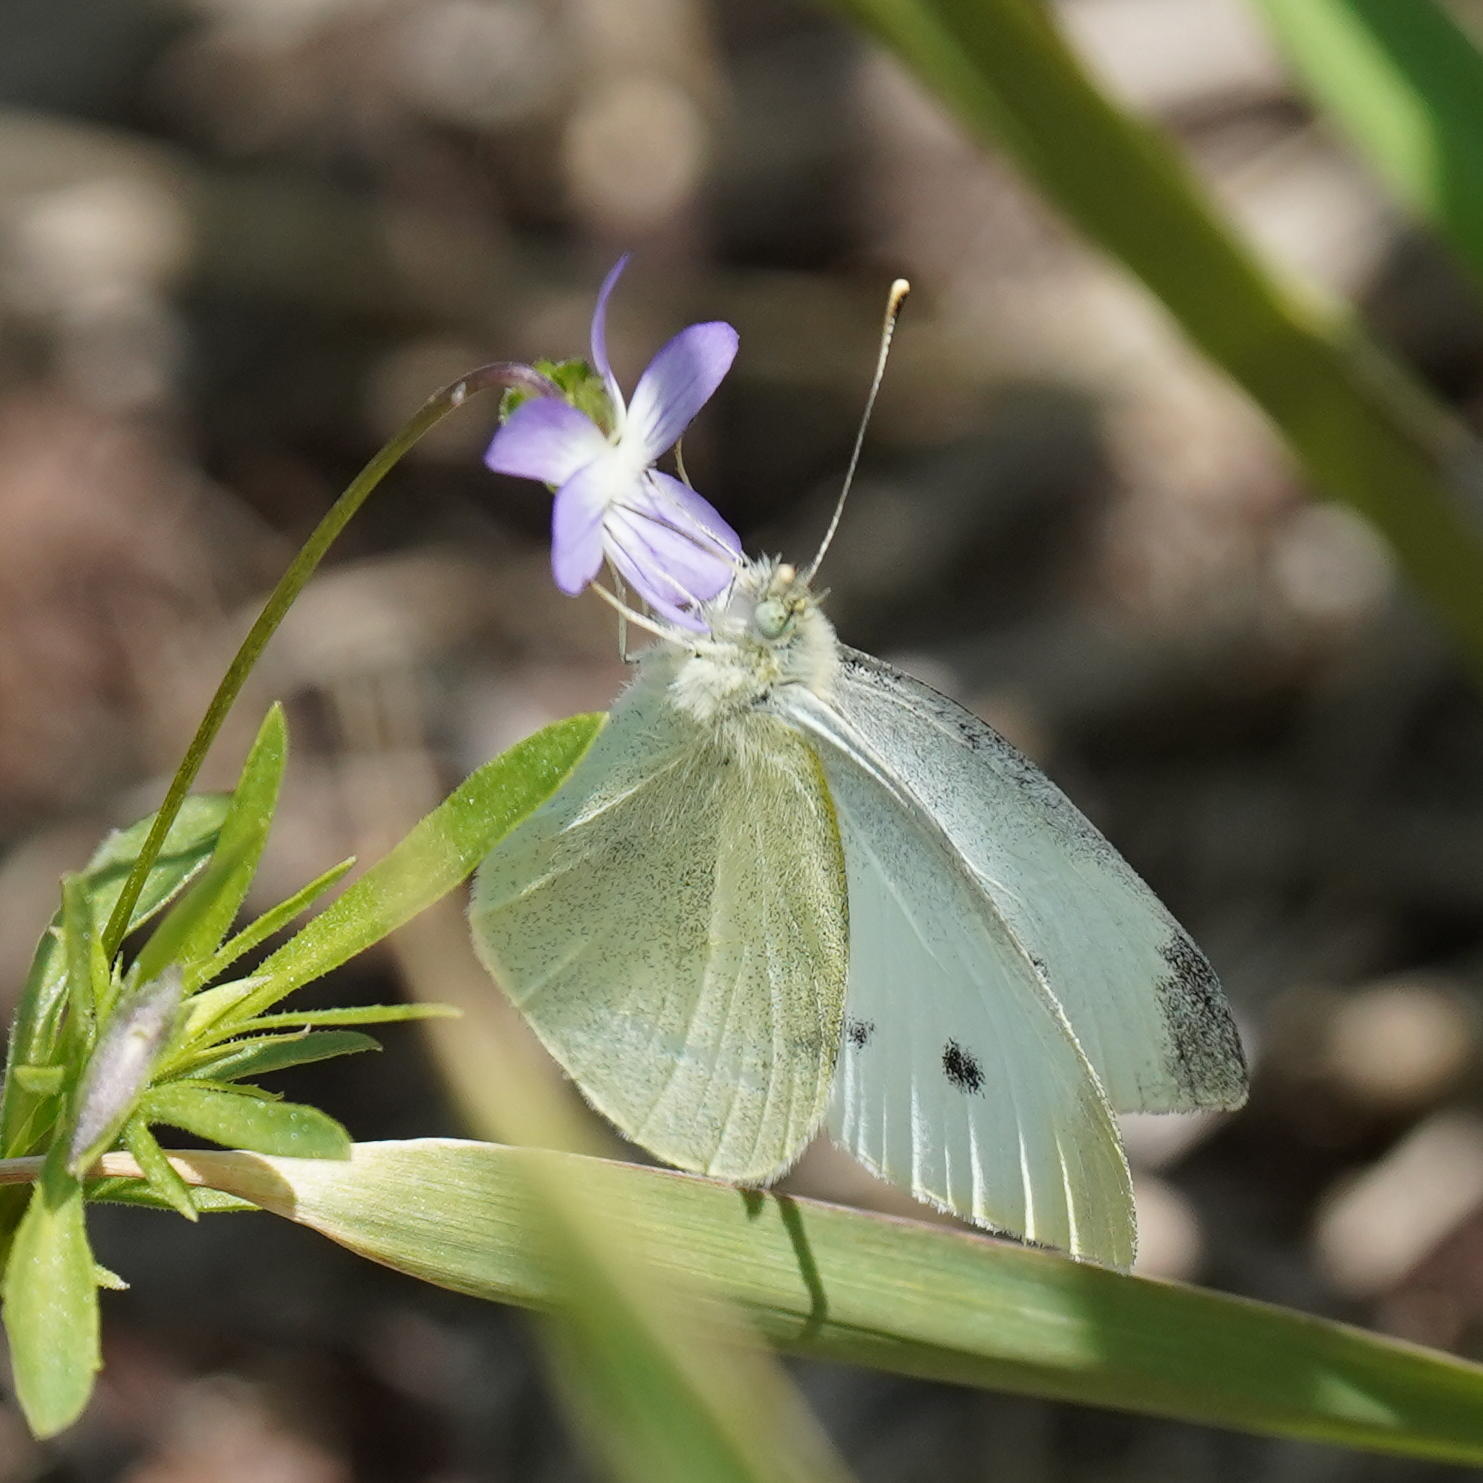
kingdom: Animalia
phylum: Arthropoda
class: Insecta
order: Lepidoptera
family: Pieridae
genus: Pieris
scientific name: Pieris rapae
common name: Small white
